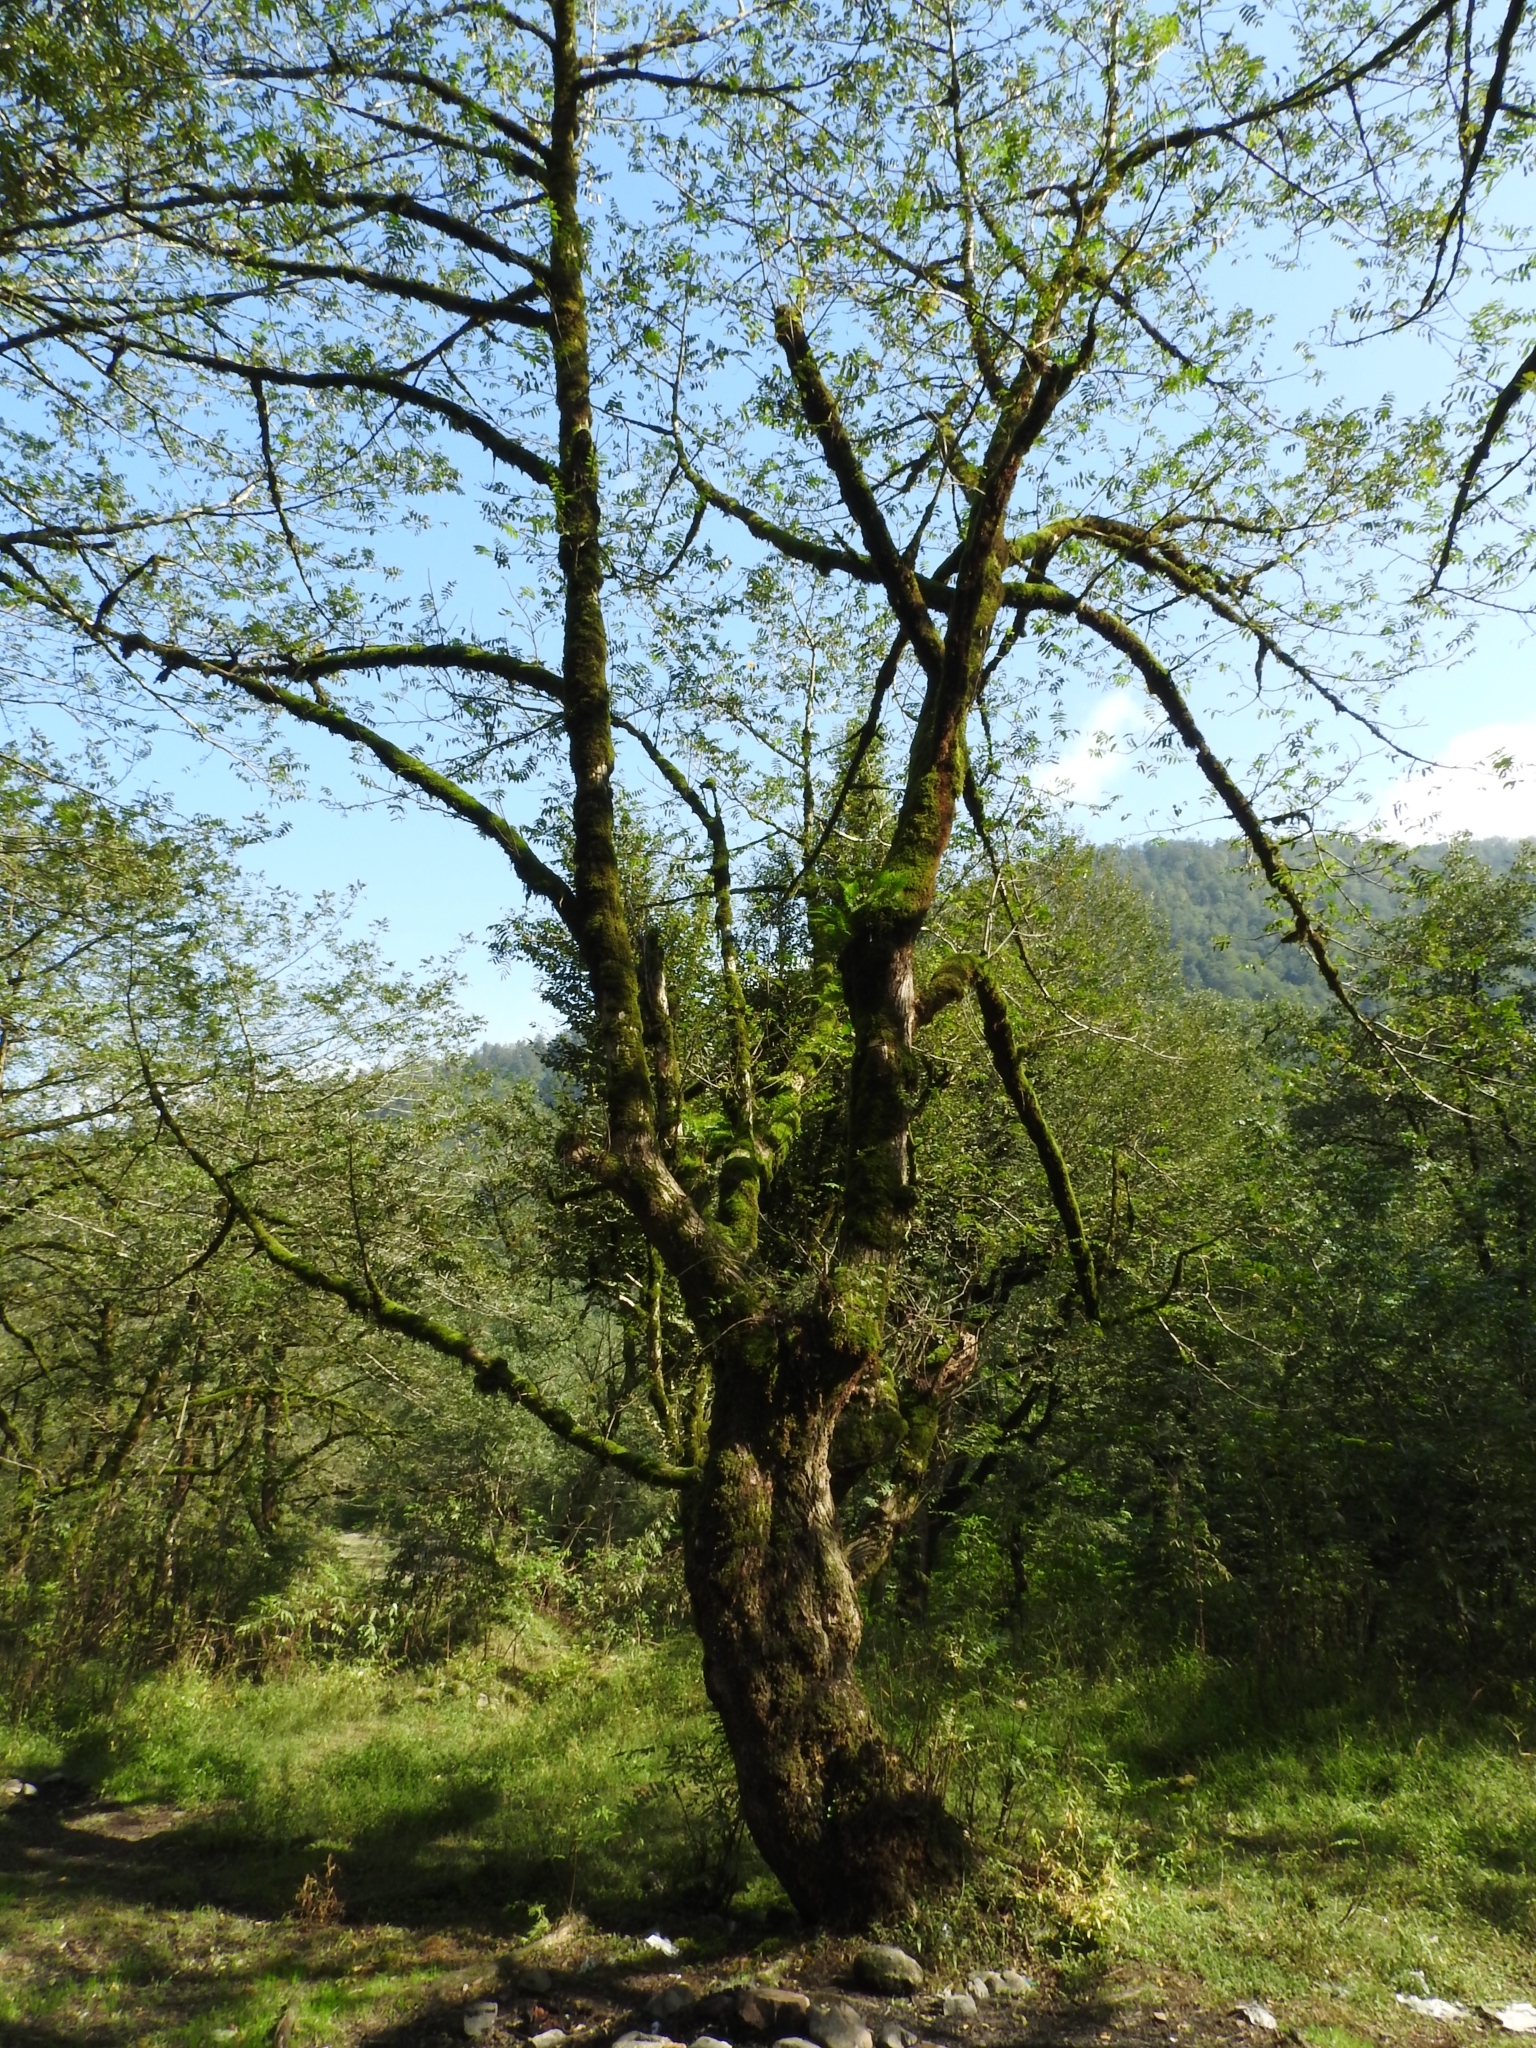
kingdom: Plantae
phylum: Tracheophyta
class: Magnoliopsida
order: Fagales
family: Juglandaceae
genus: Pterocarya
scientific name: Pterocarya fraxinifolia
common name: Caucasian wingnut
